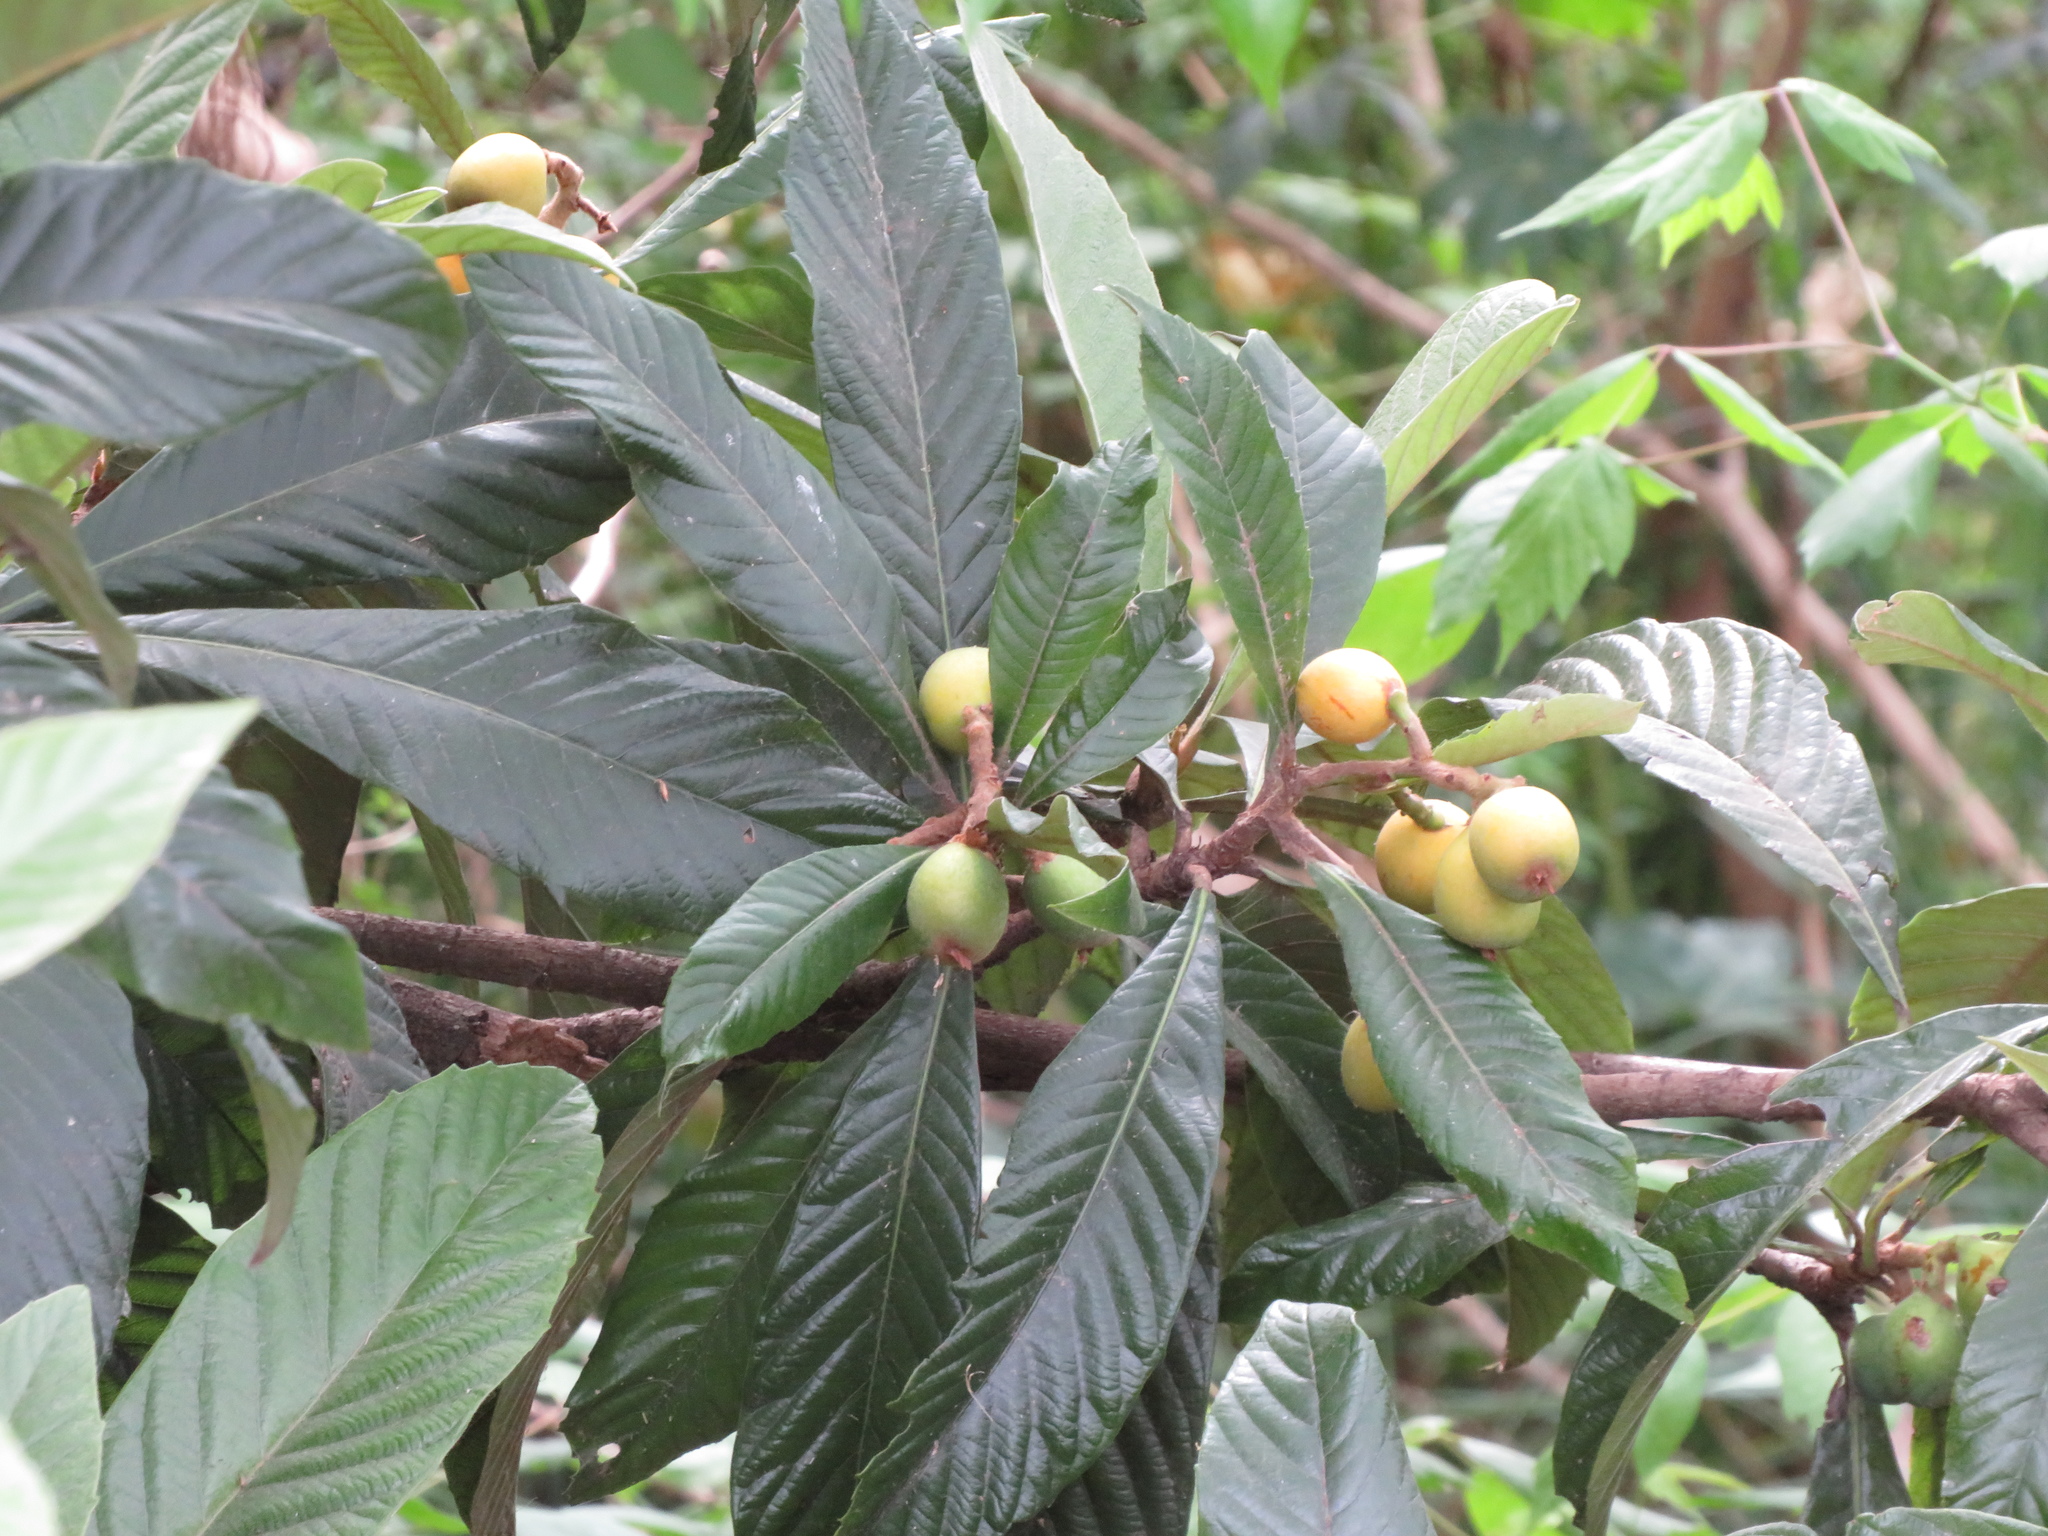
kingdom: Plantae
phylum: Tracheophyta
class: Magnoliopsida
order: Rosales
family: Rosaceae
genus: Rhaphiolepis
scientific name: Rhaphiolepis bibas
